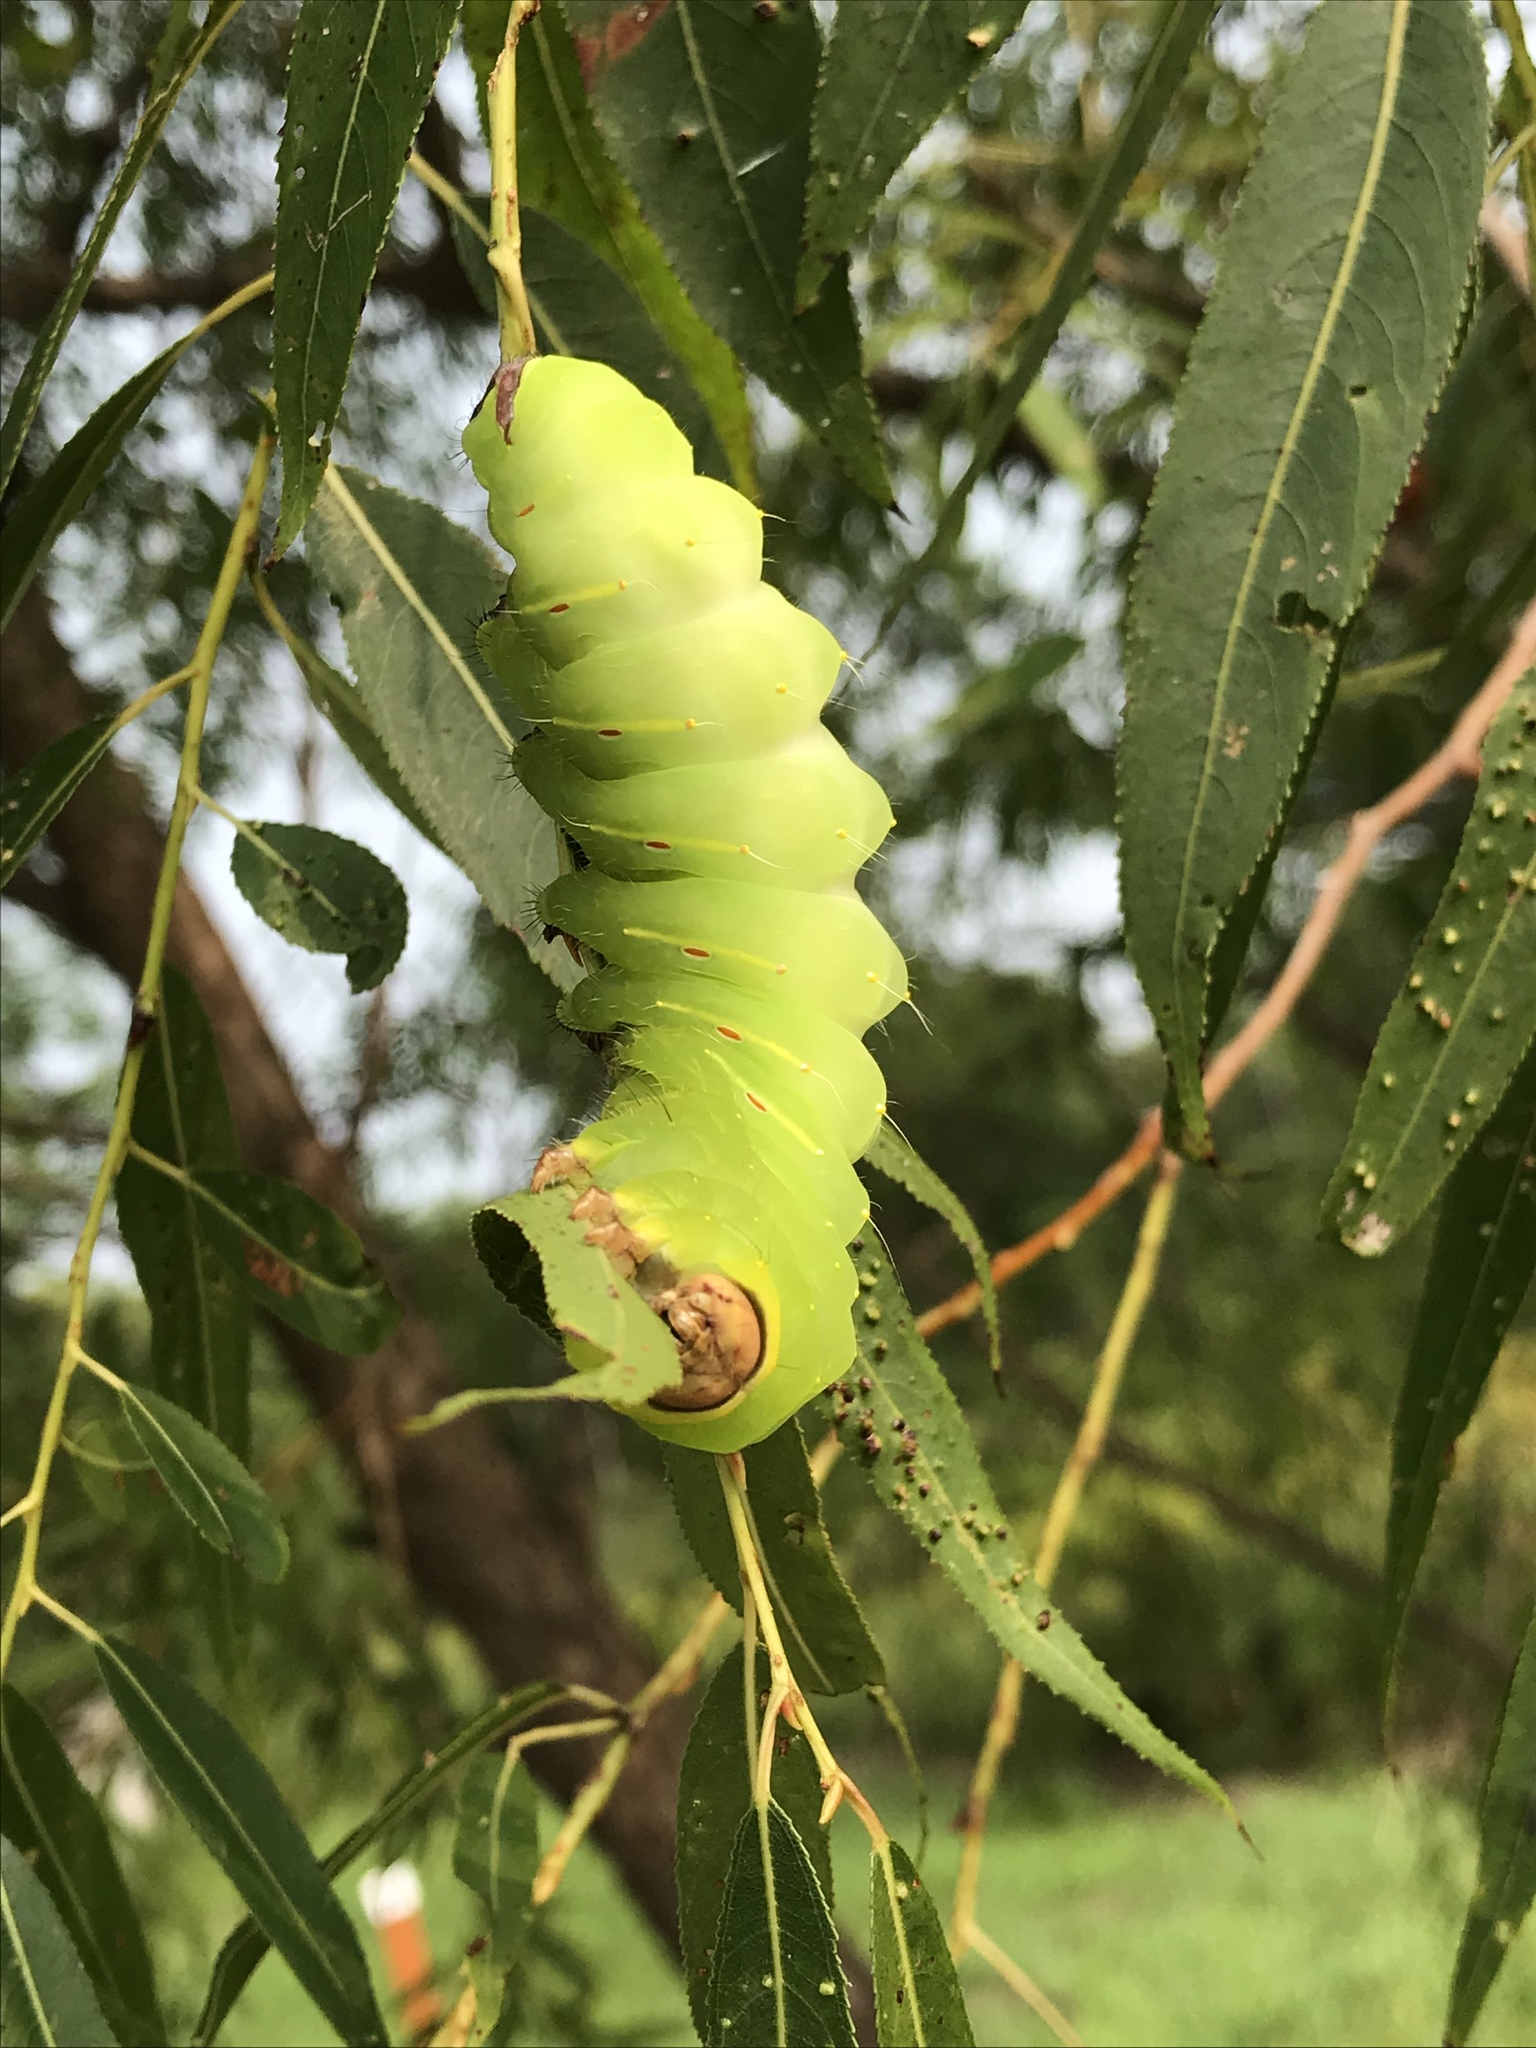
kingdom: Animalia
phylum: Arthropoda
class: Insecta
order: Lepidoptera
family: Saturniidae
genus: Antheraea
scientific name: Antheraea polyphemus
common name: Polyphemus moth
